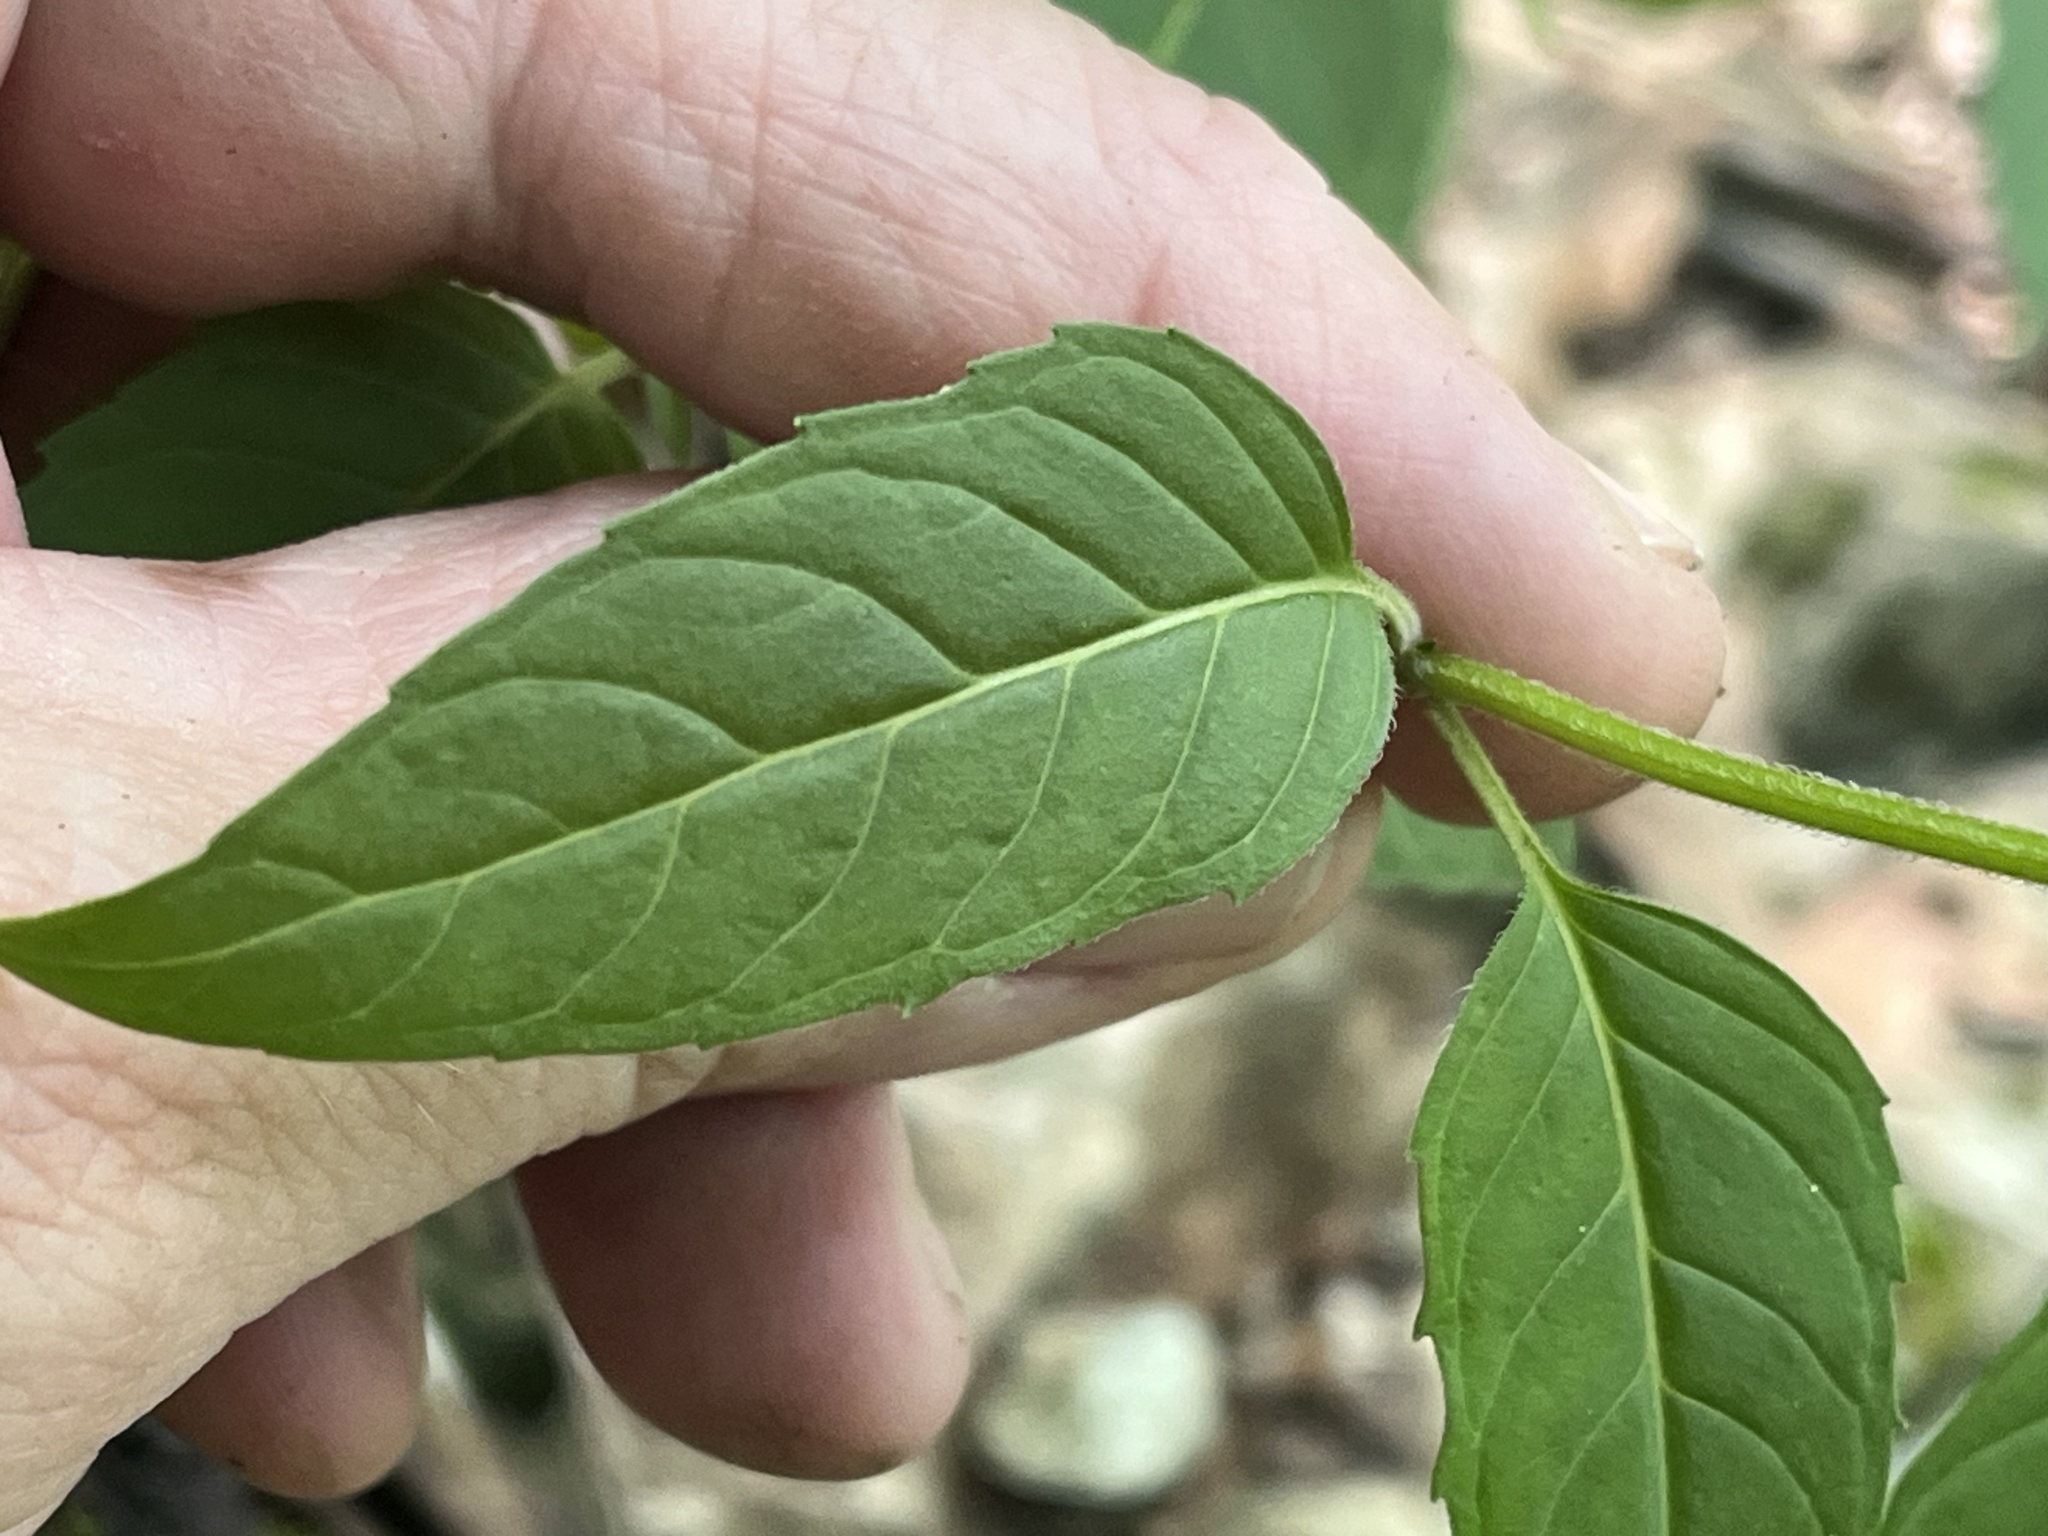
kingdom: Plantae
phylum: Tracheophyta
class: Magnoliopsida
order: Lamiales
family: Lamiaceae
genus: Blephilia
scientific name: Blephilia subnuda
